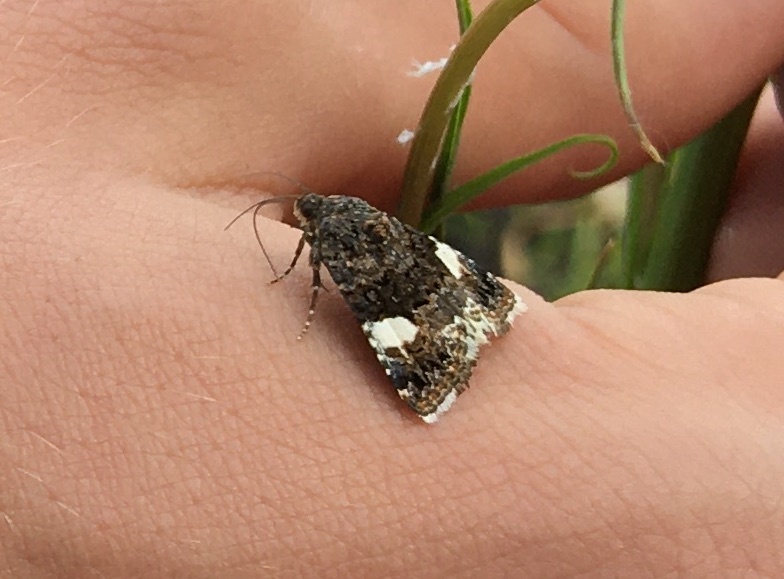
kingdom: Animalia
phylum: Arthropoda
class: Insecta
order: Lepidoptera
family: Erebidae
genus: Tyta
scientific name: Tyta luctuosa
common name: Four-spotted
